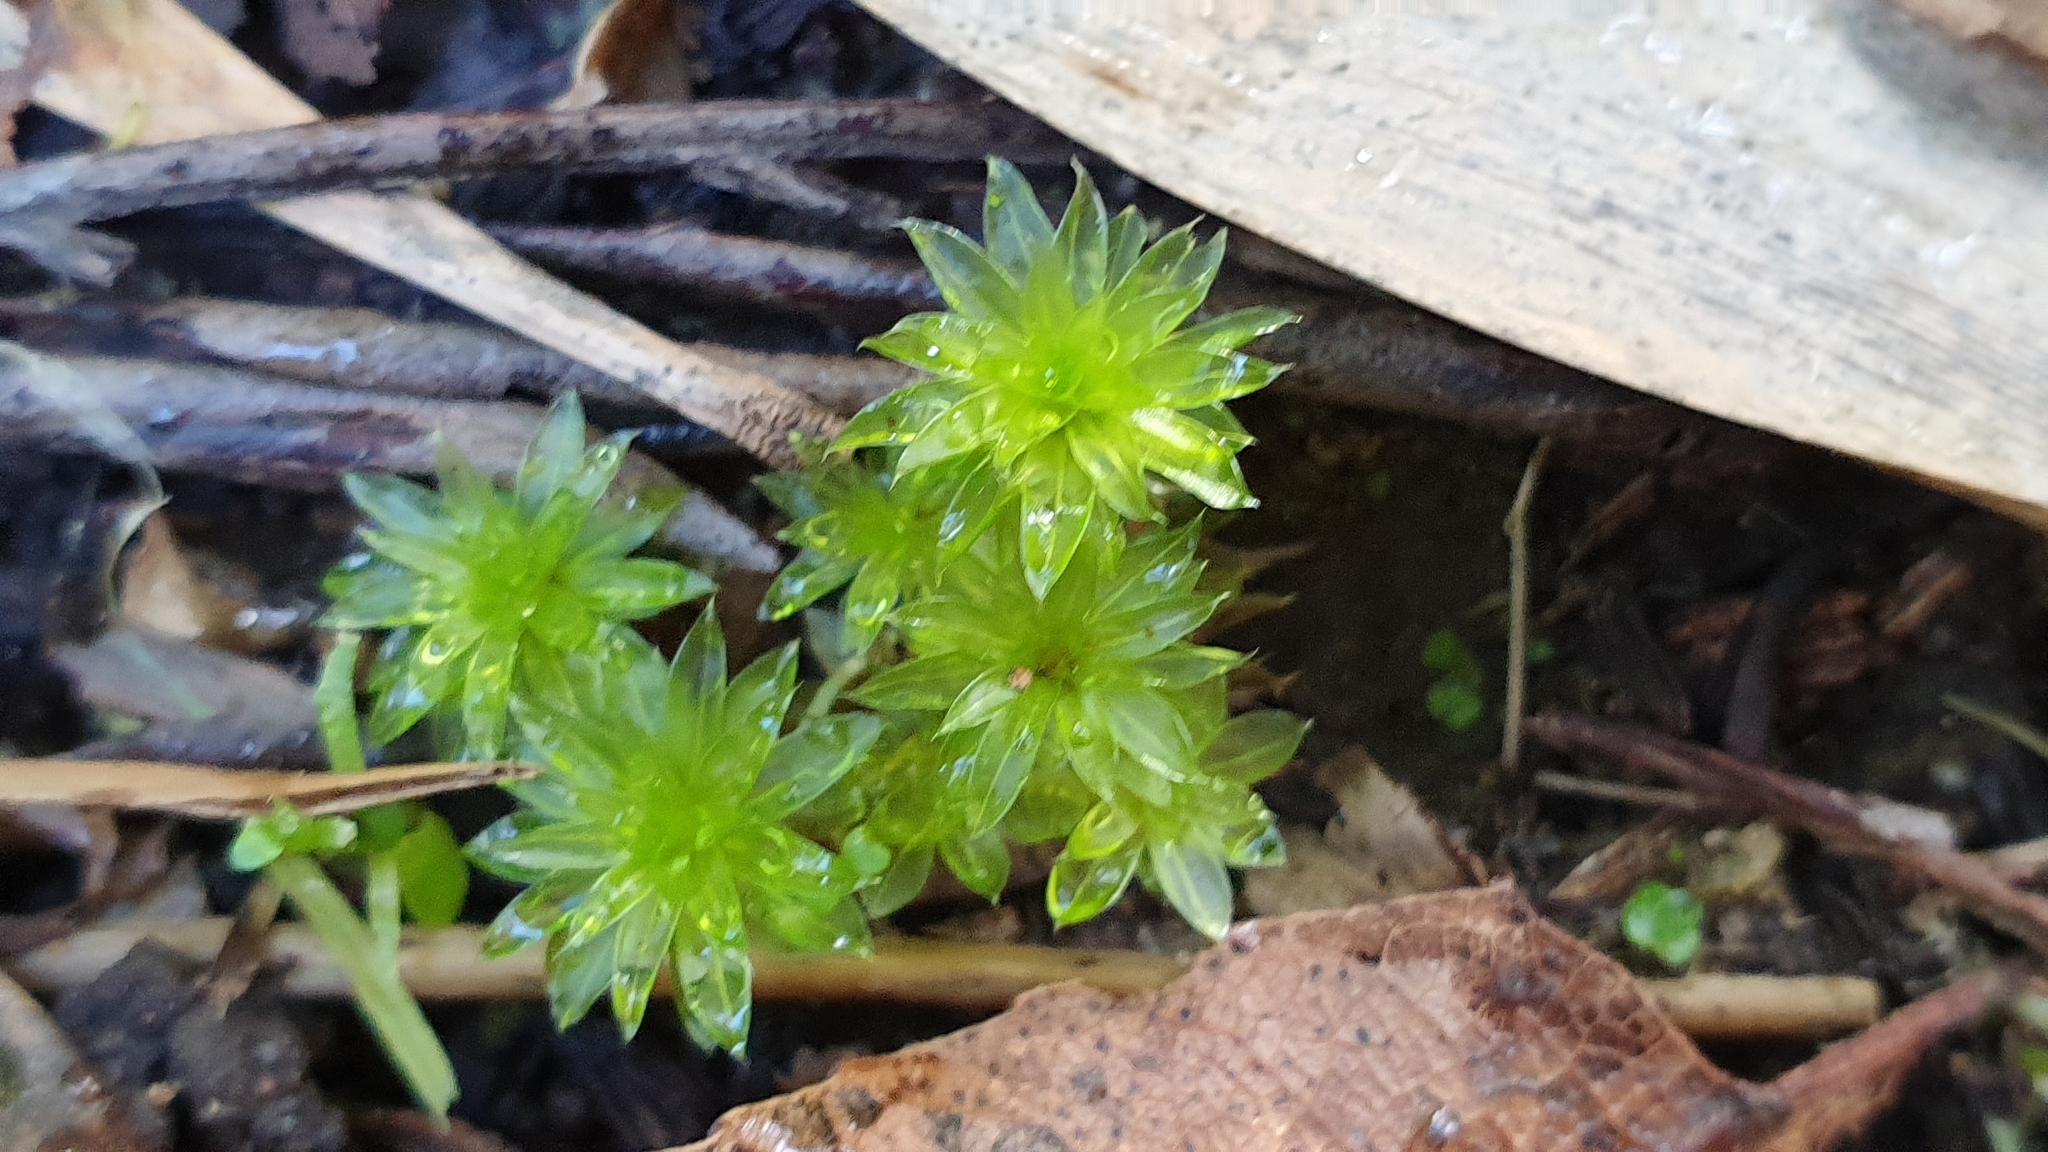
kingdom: Plantae
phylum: Bryophyta
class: Bryopsida
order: Bryales
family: Bryaceae
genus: Rosulabryum
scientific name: Rosulabryum billardierei
